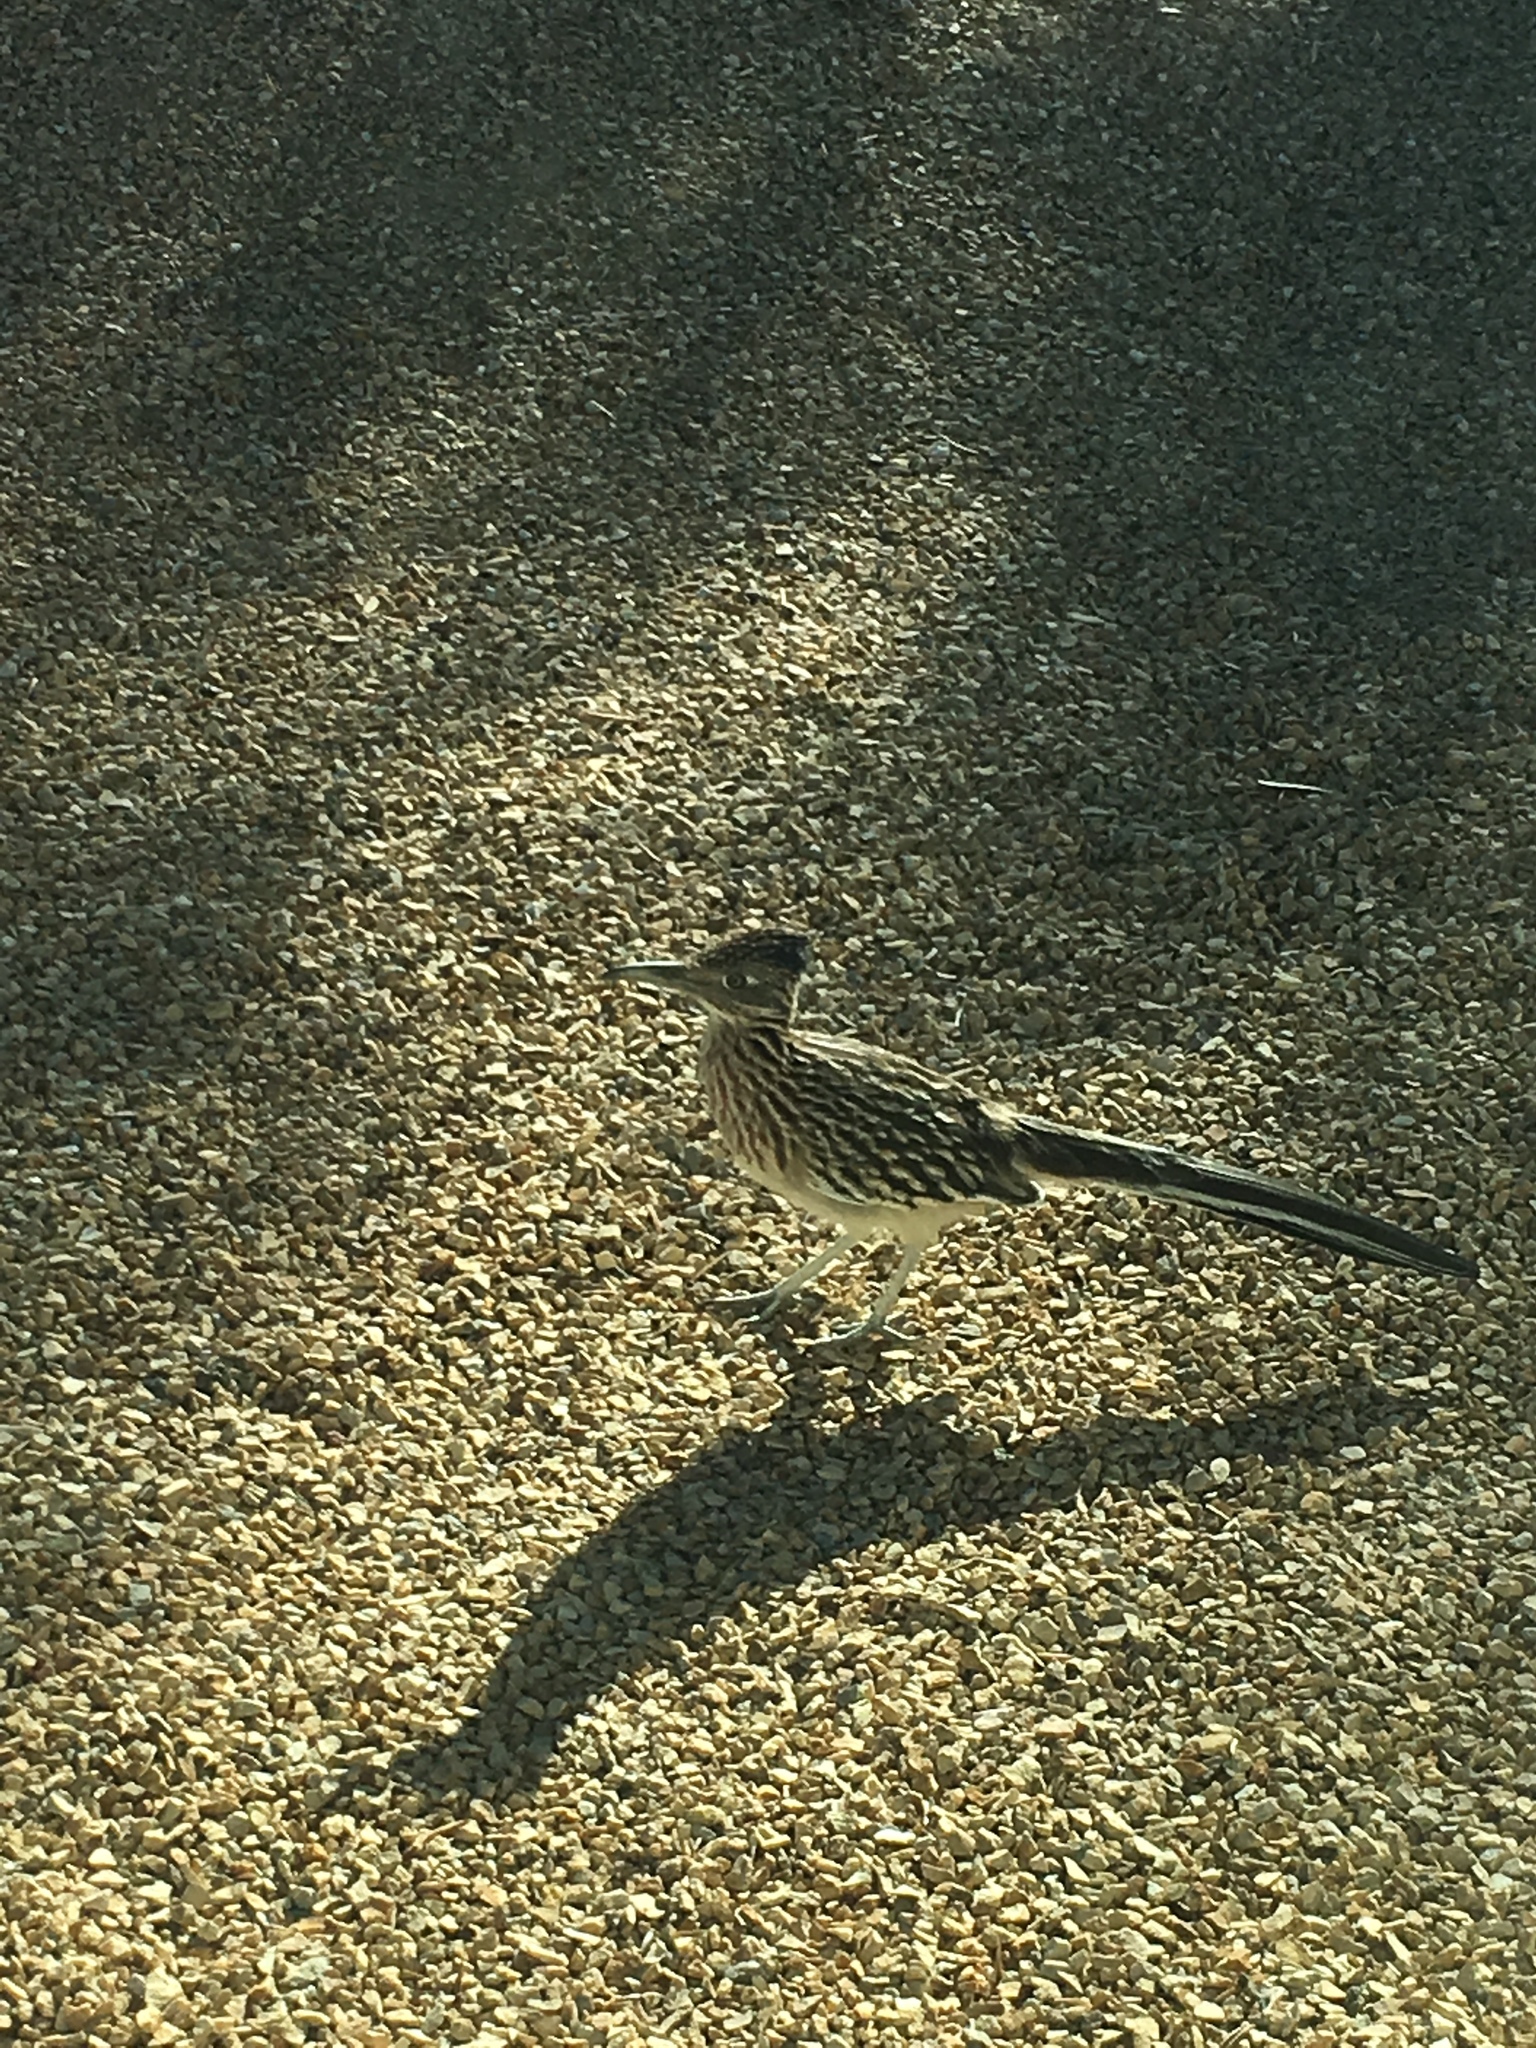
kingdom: Animalia
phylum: Chordata
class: Aves
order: Cuculiformes
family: Cuculidae
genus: Geococcyx
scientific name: Geococcyx californianus
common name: Greater roadrunner
